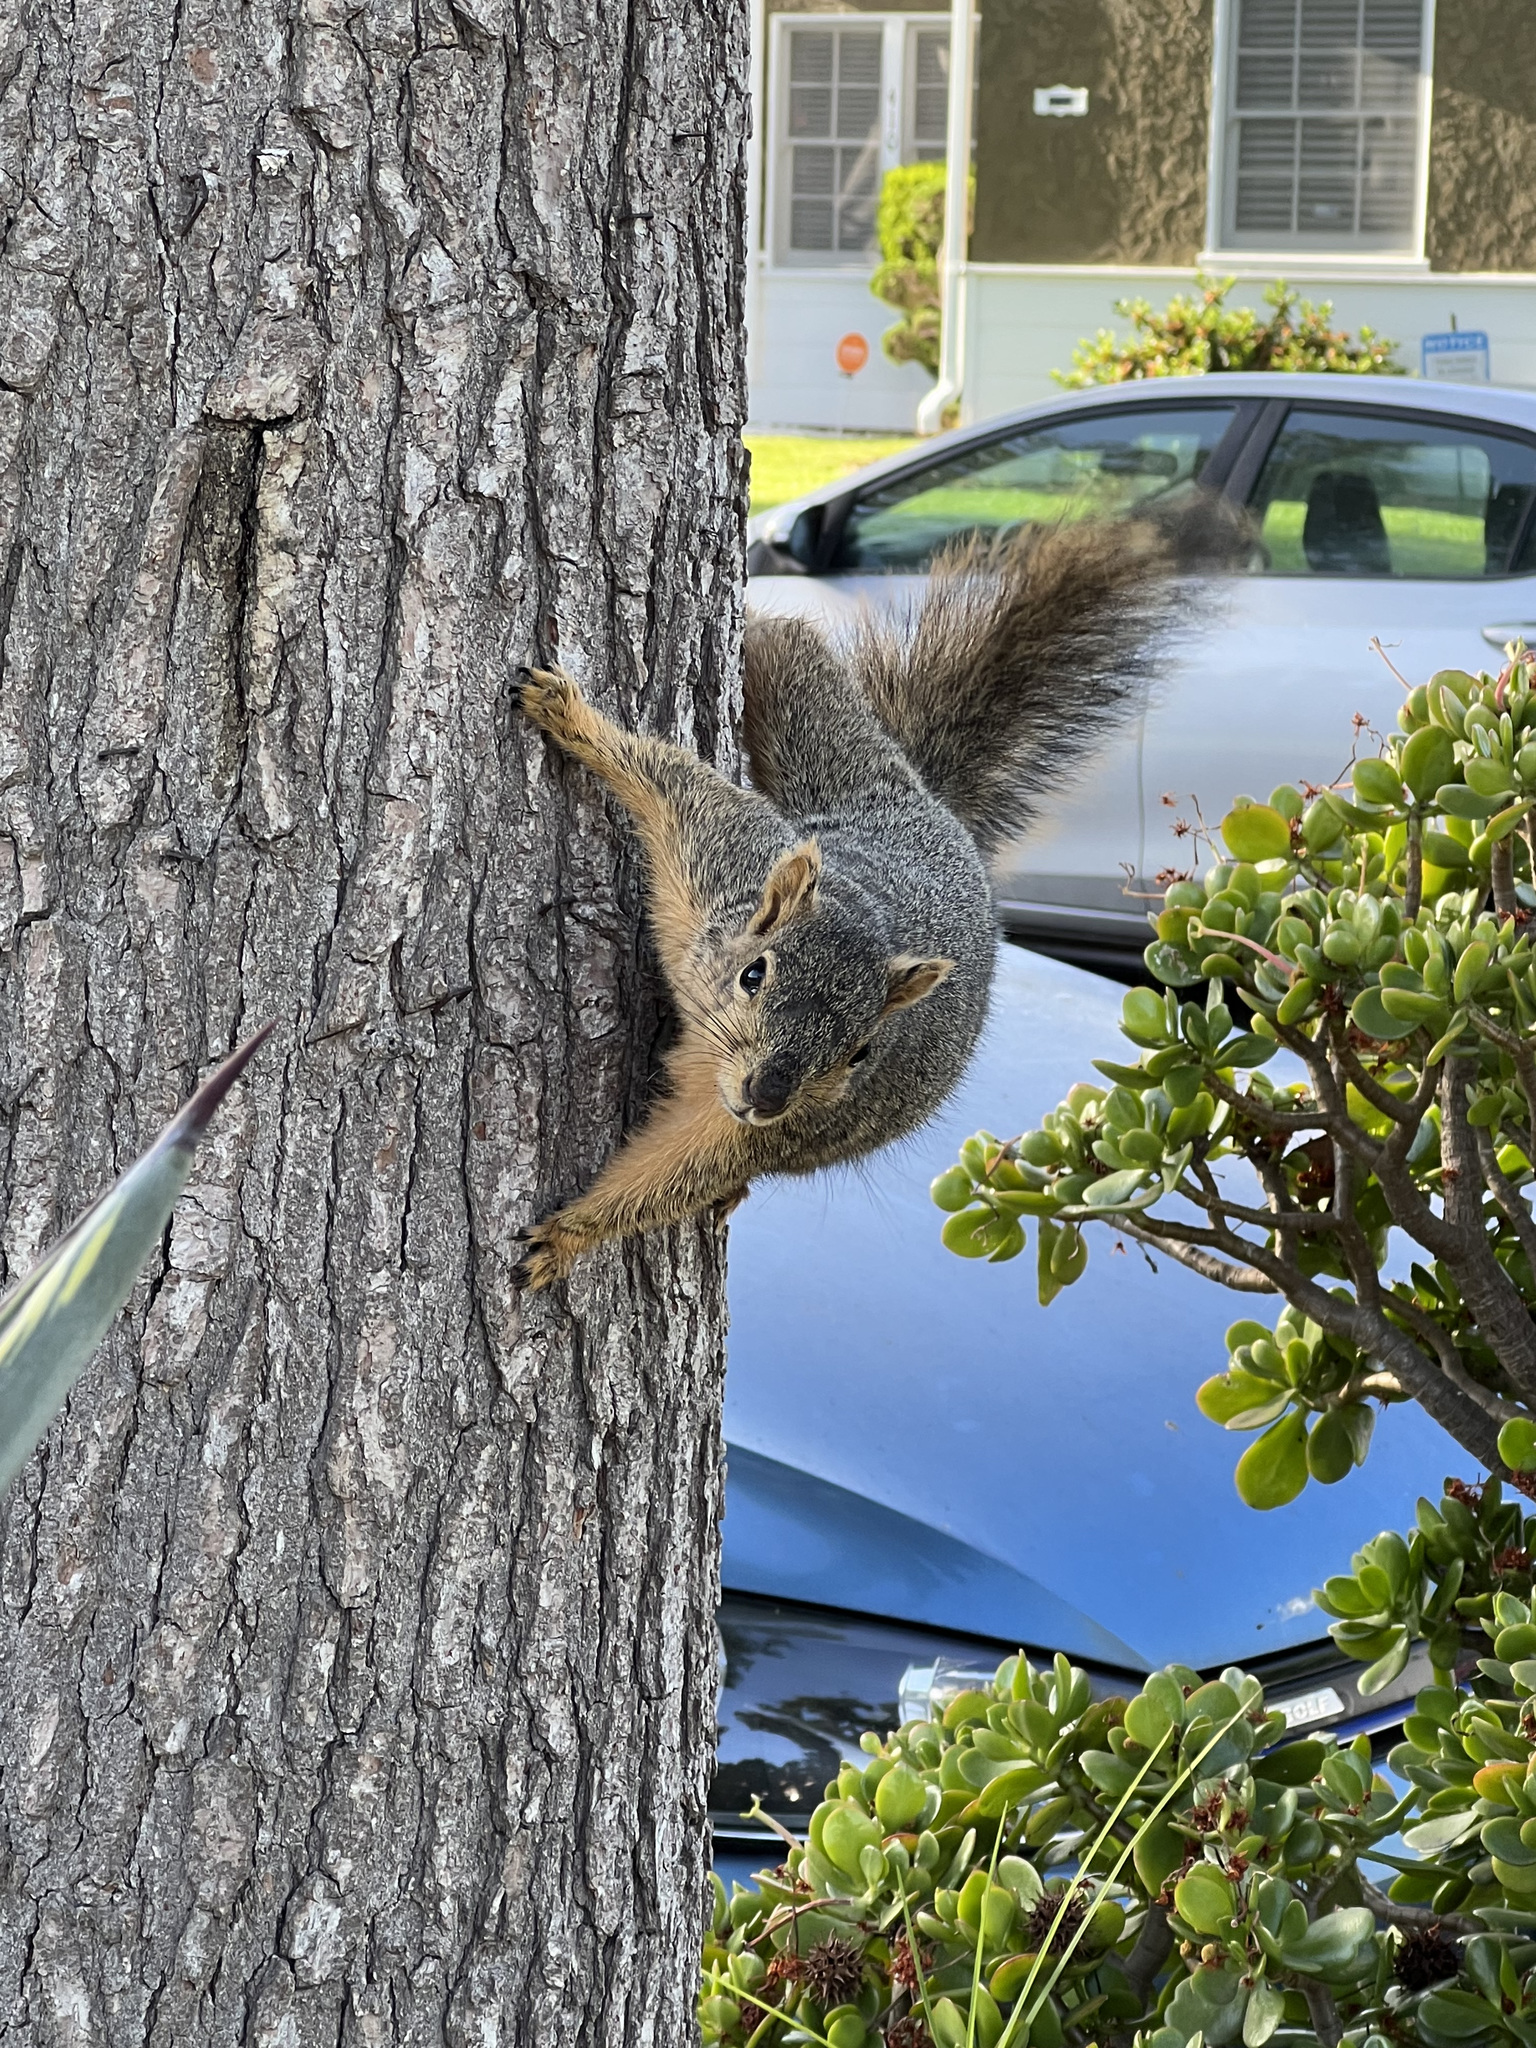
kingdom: Animalia
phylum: Chordata
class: Mammalia
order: Rodentia
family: Sciuridae
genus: Sciurus
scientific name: Sciurus niger
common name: Fox squirrel
